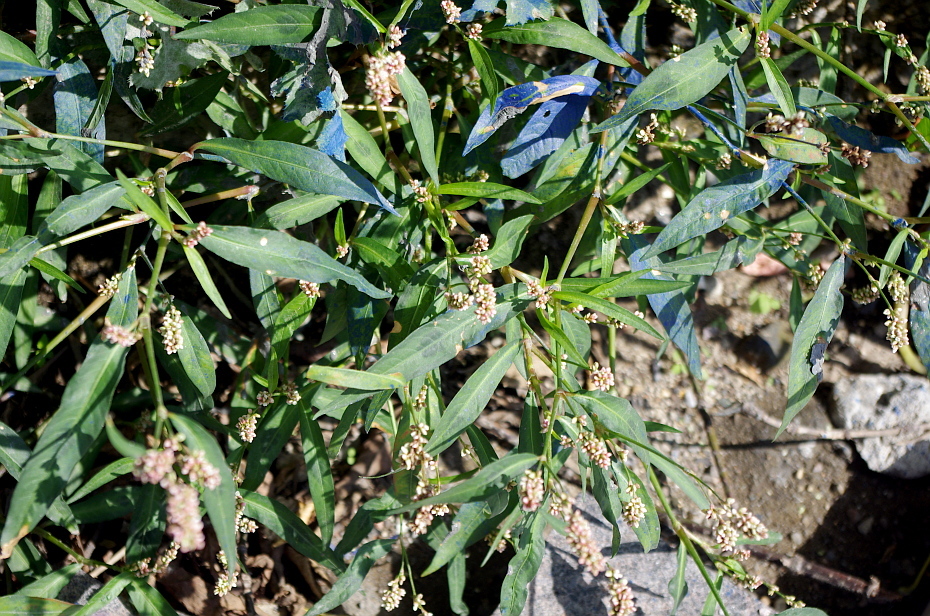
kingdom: Plantae
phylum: Tracheophyta
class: Magnoliopsida
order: Caryophyllales
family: Polygonaceae
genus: Persicaria
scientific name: Persicaria maculosa
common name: Redshank
